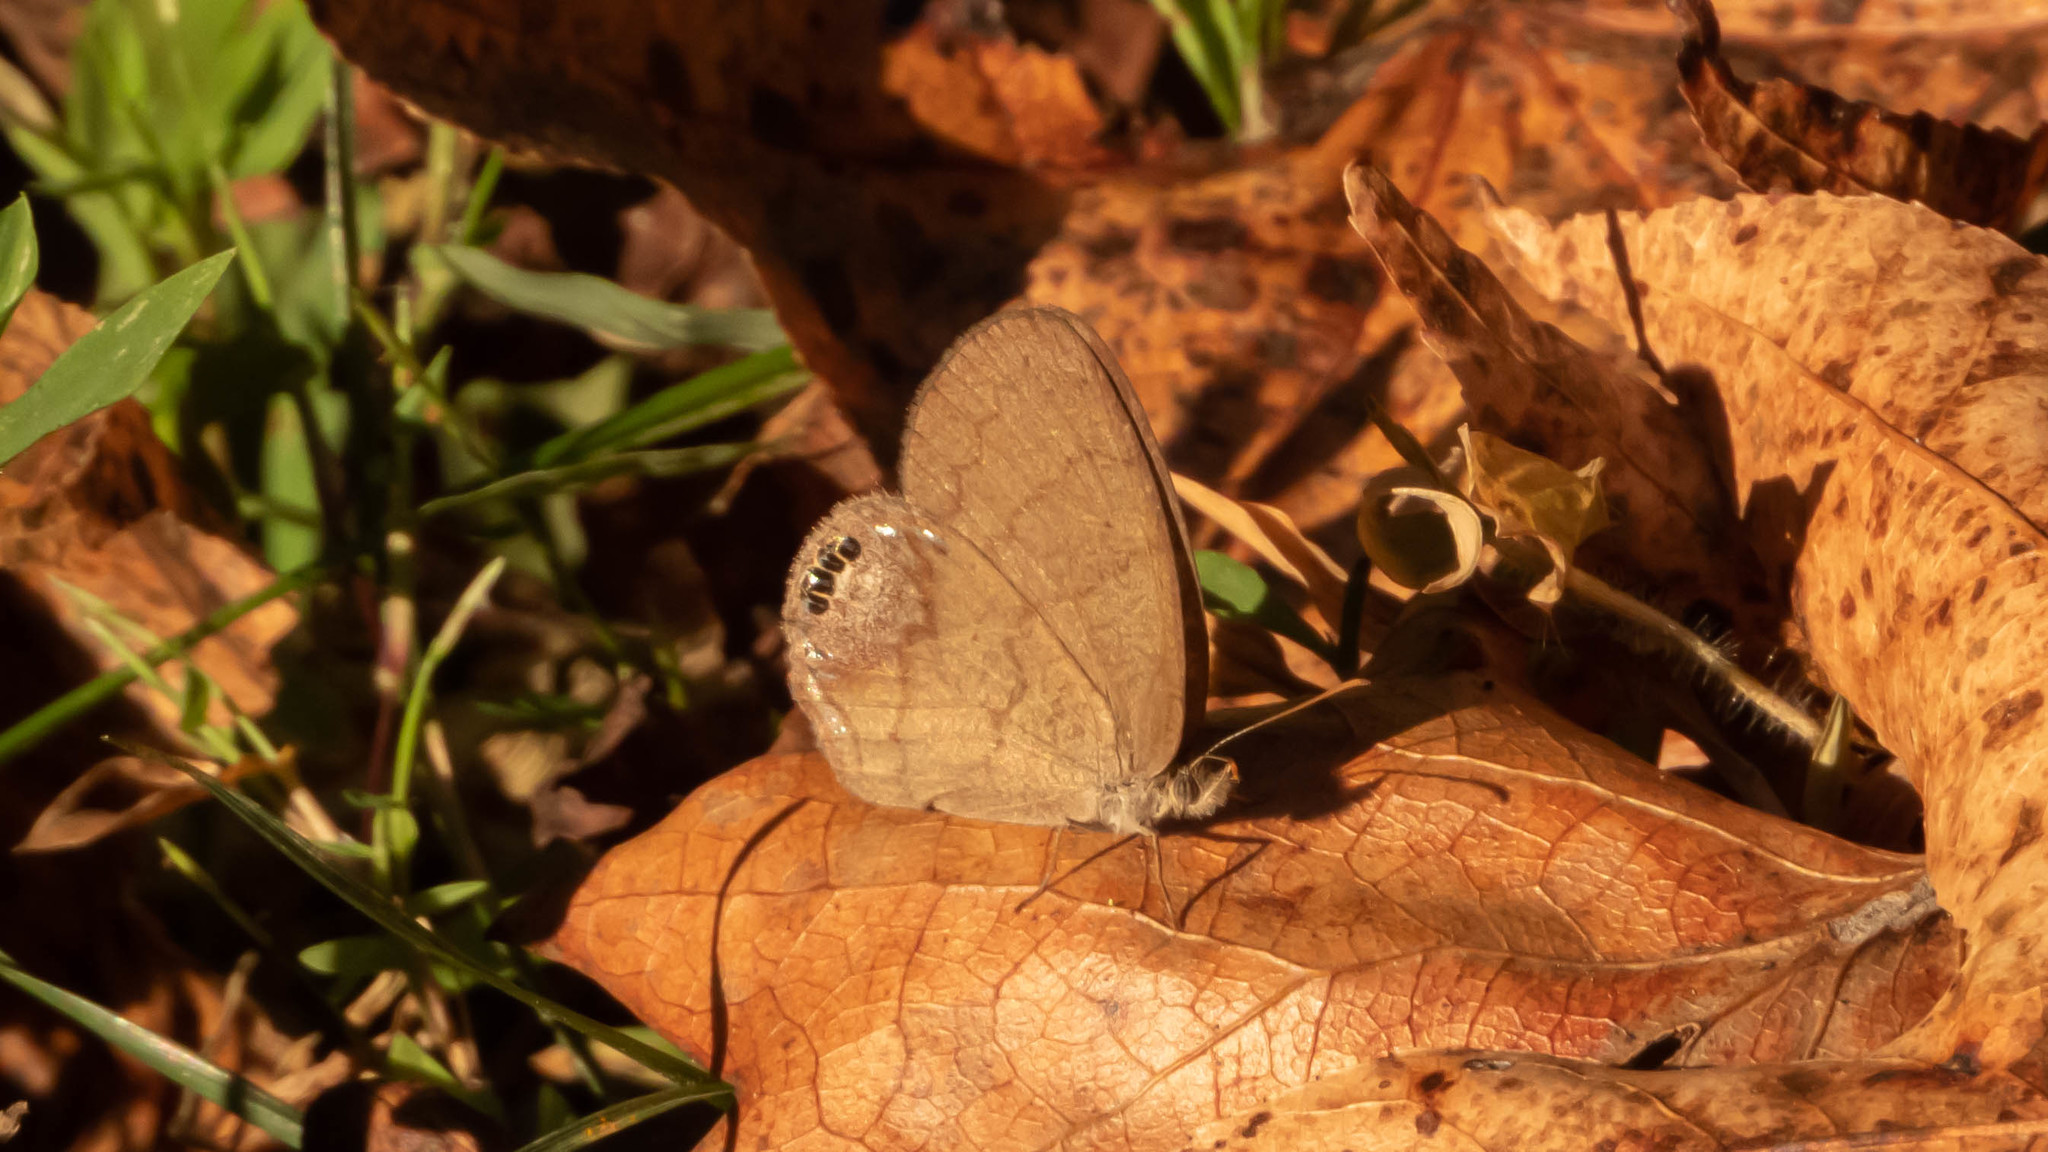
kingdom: Animalia
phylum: Arthropoda
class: Insecta
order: Lepidoptera
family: Nymphalidae
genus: Euptychia
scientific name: Euptychia cornelius
